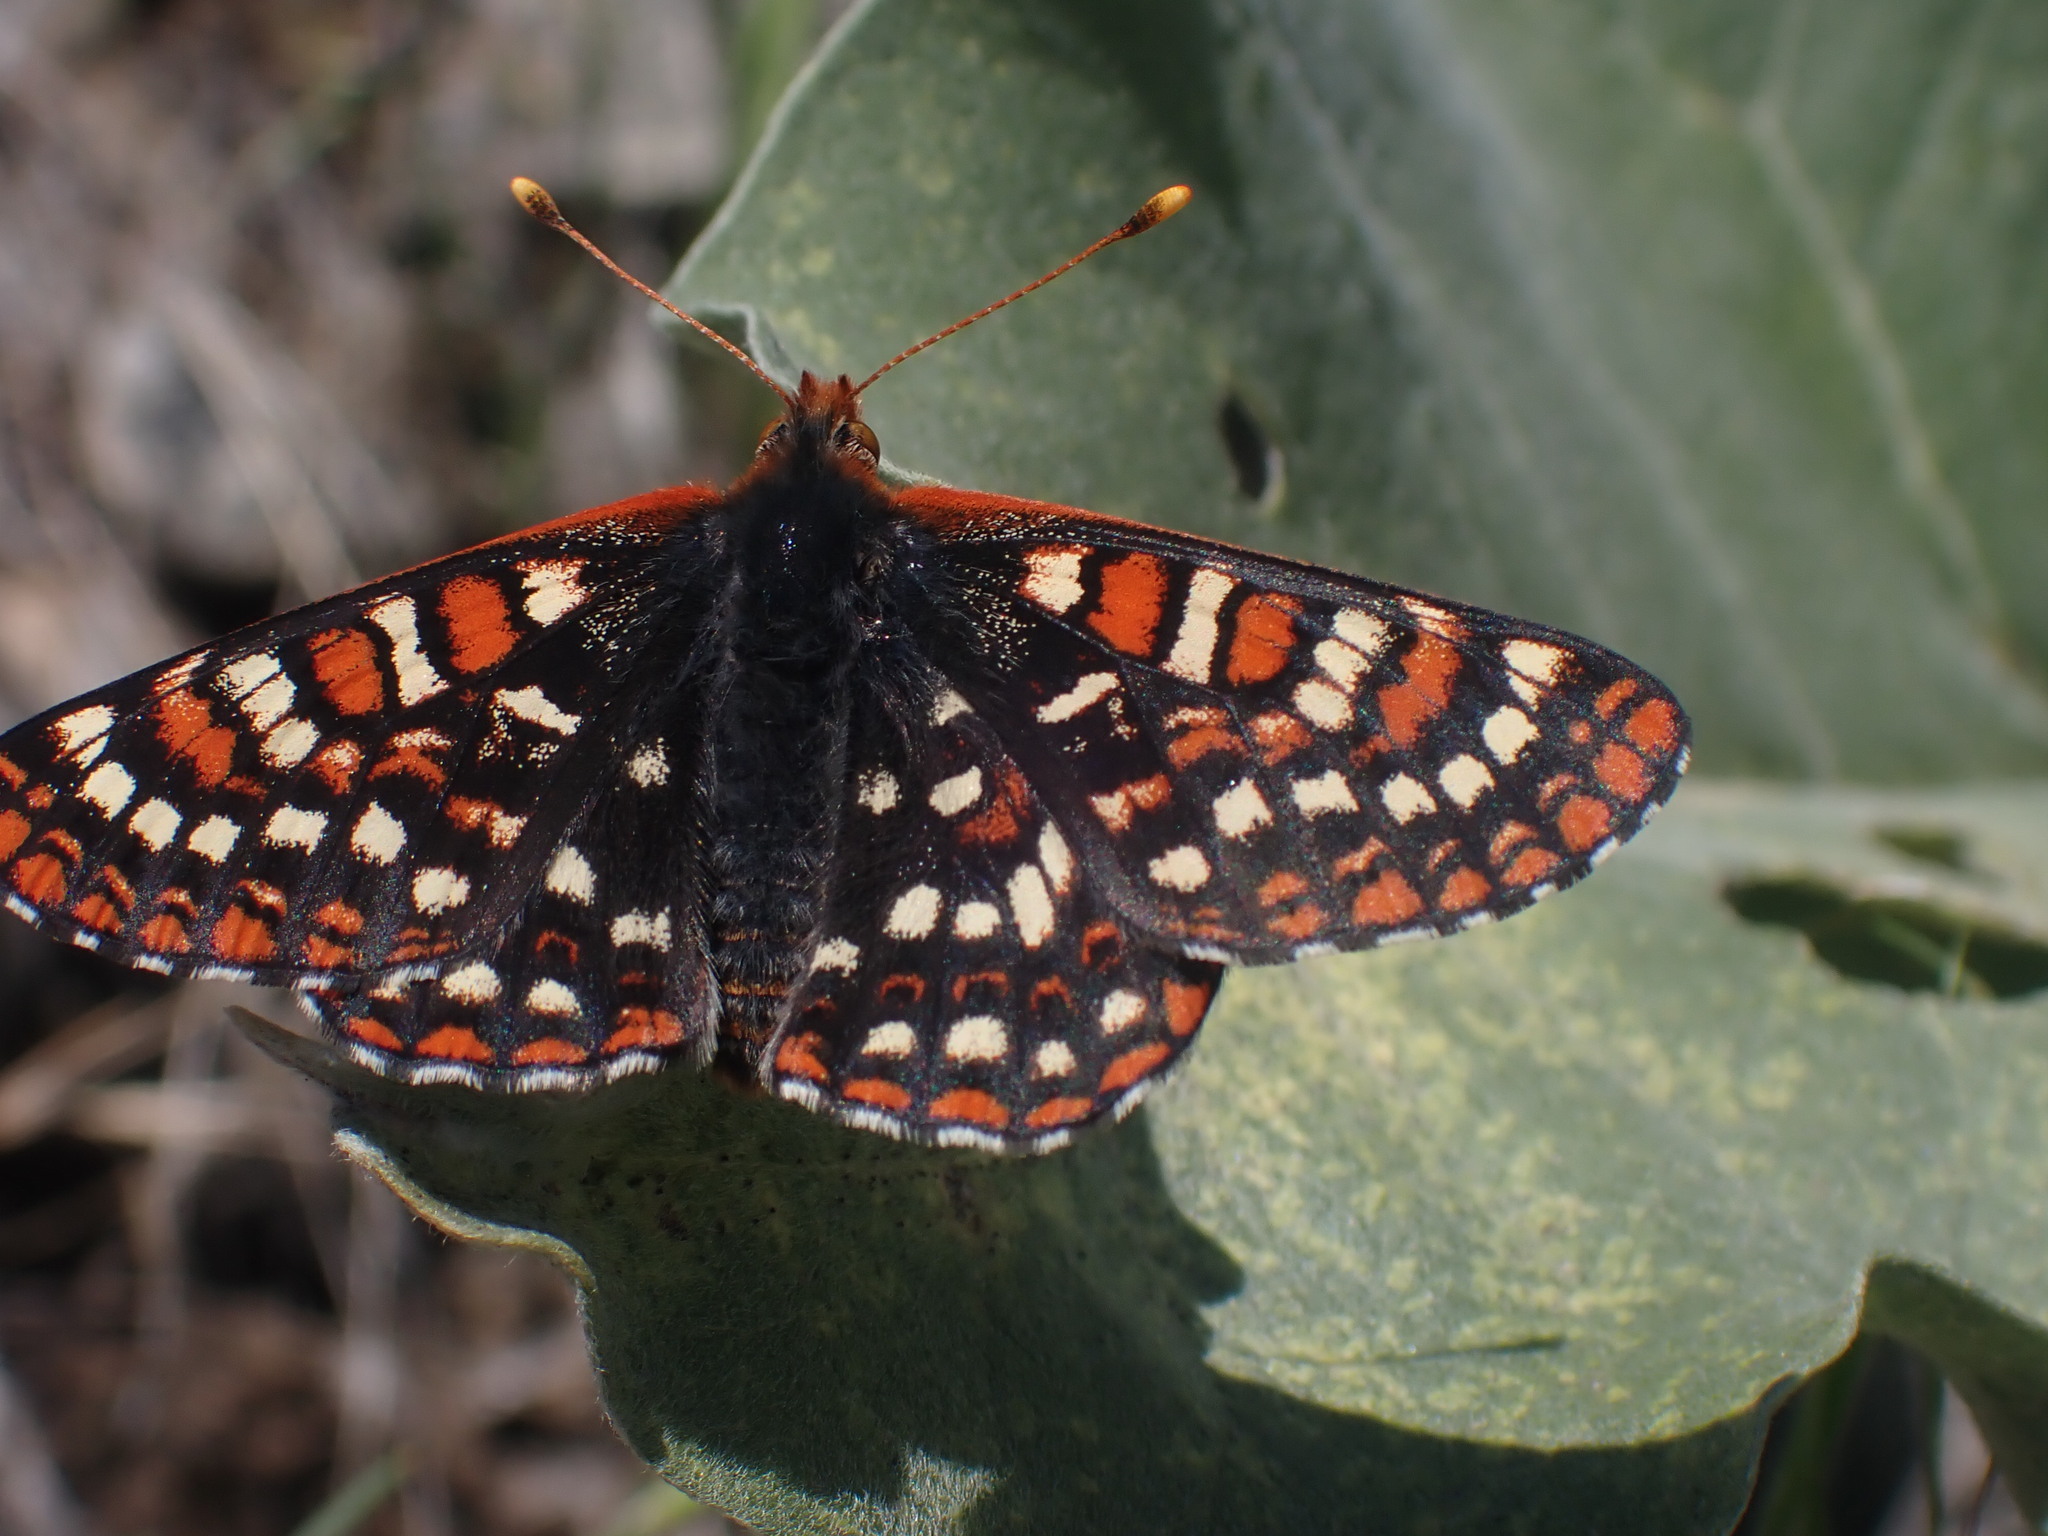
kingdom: Animalia
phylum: Arthropoda
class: Insecta
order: Lepidoptera
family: Nymphalidae
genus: Occidryas
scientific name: Occidryas anicia
